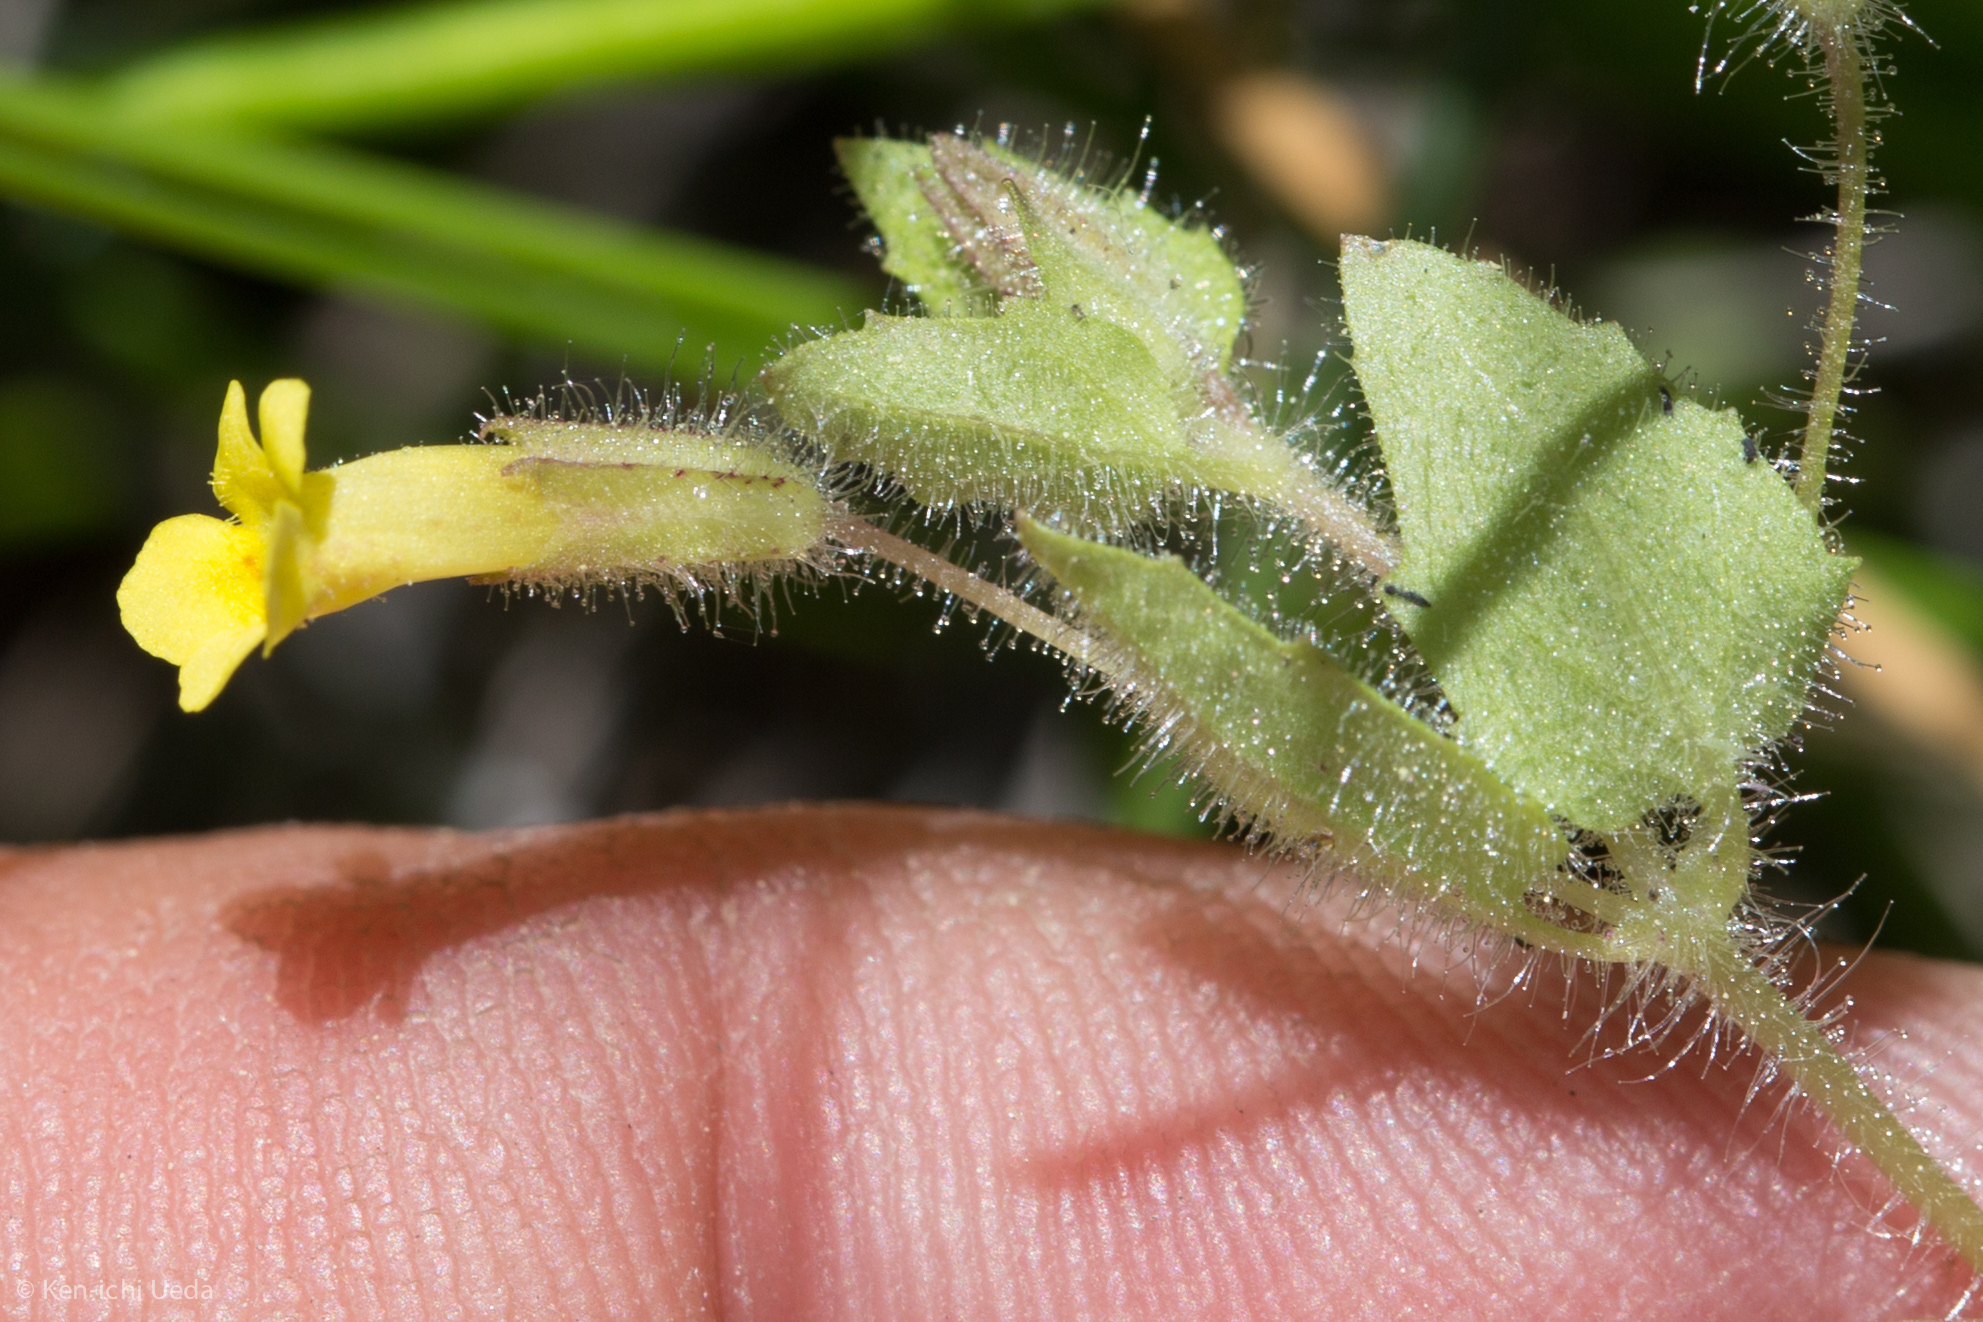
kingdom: Plantae
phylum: Tracheophyta
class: Magnoliopsida
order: Lamiales
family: Phrymaceae
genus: Erythranthe
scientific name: Erythranthe floribunda
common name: Floriferous monkeyflower
